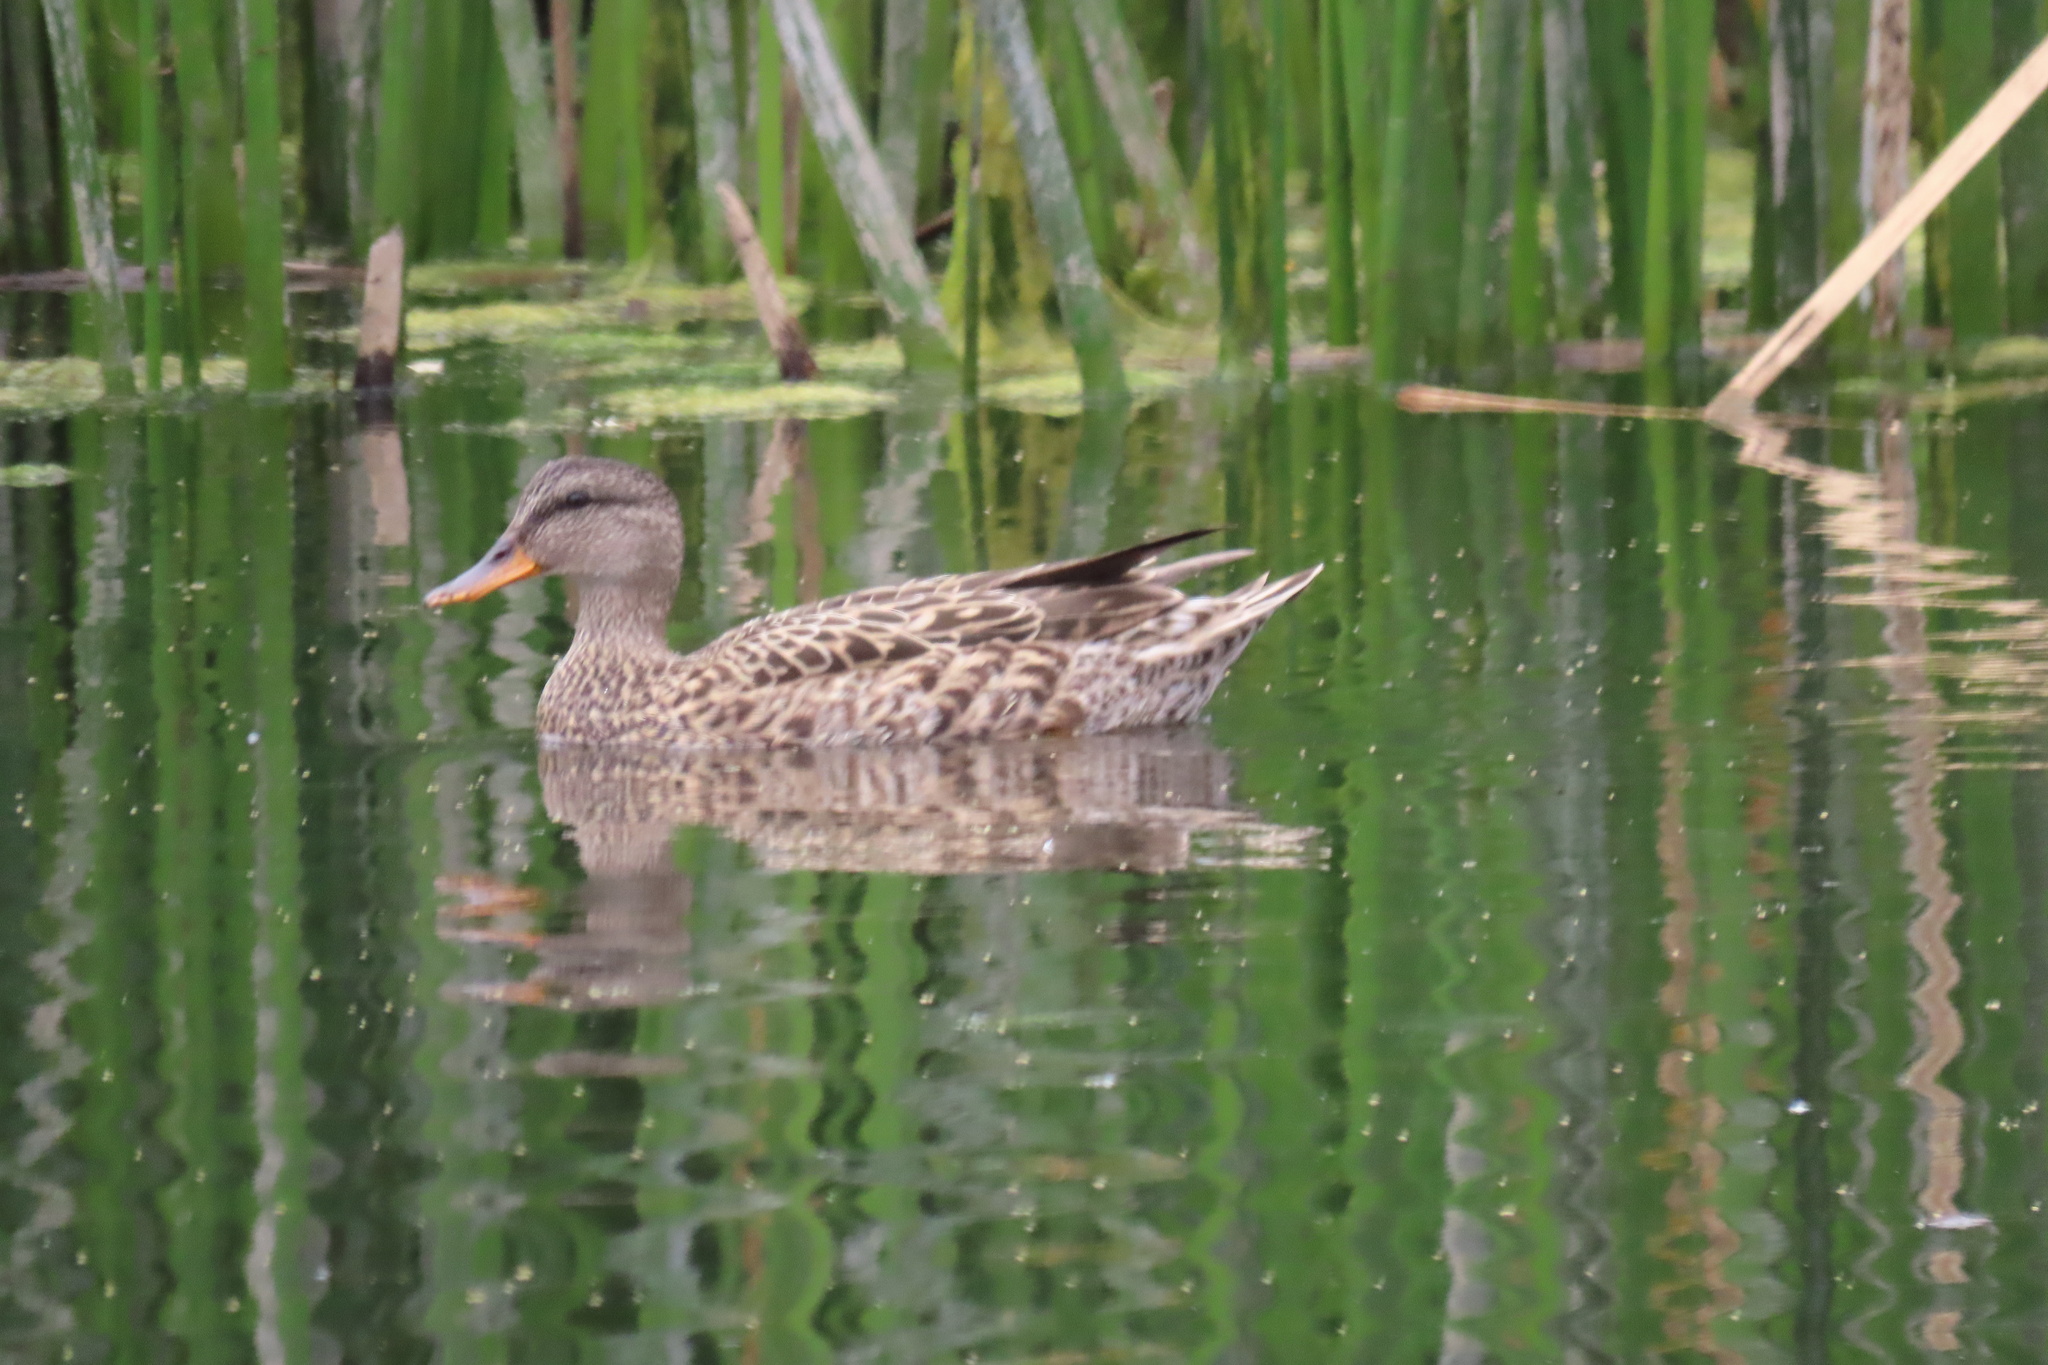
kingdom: Animalia
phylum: Chordata
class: Aves
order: Anseriformes
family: Anatidae
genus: Mareca
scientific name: Mareca strepera
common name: Gadwall
